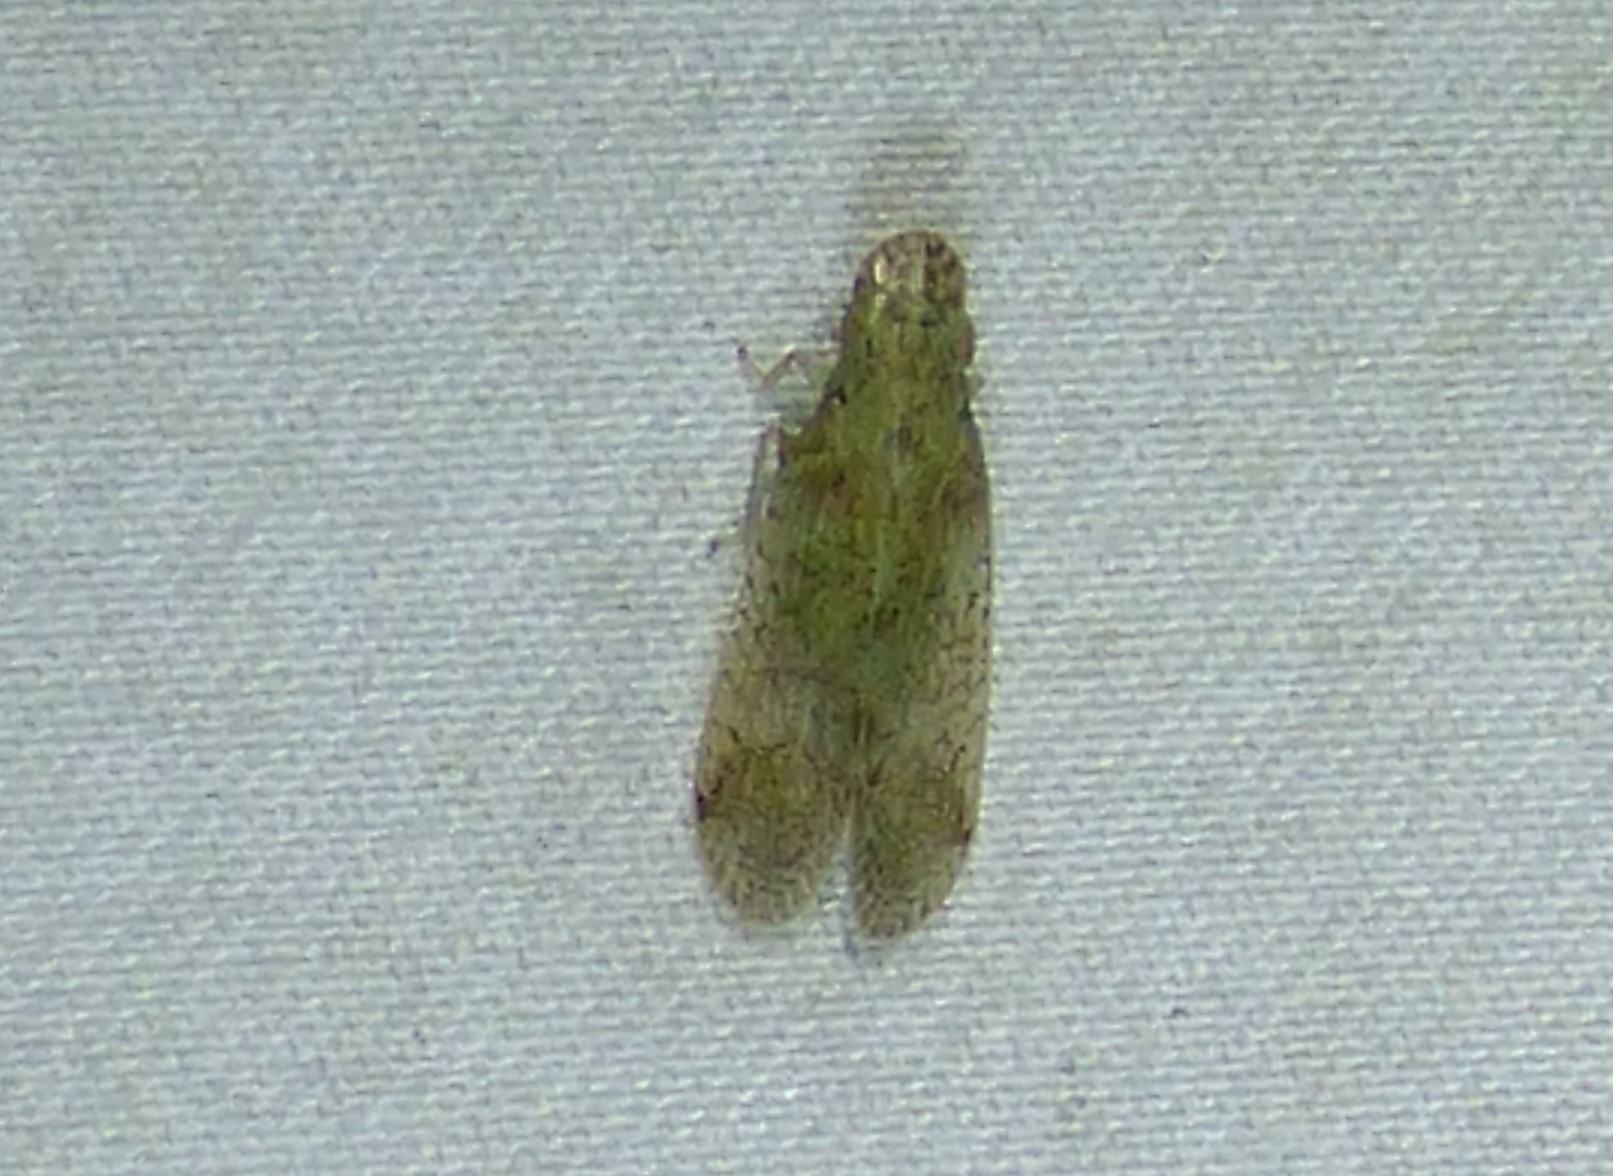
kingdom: Animalia
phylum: Arthropoda
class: Insecta
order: Hemiptera
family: Tropiduchidae
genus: Pelitropis
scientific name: Pelitropis rotulata
